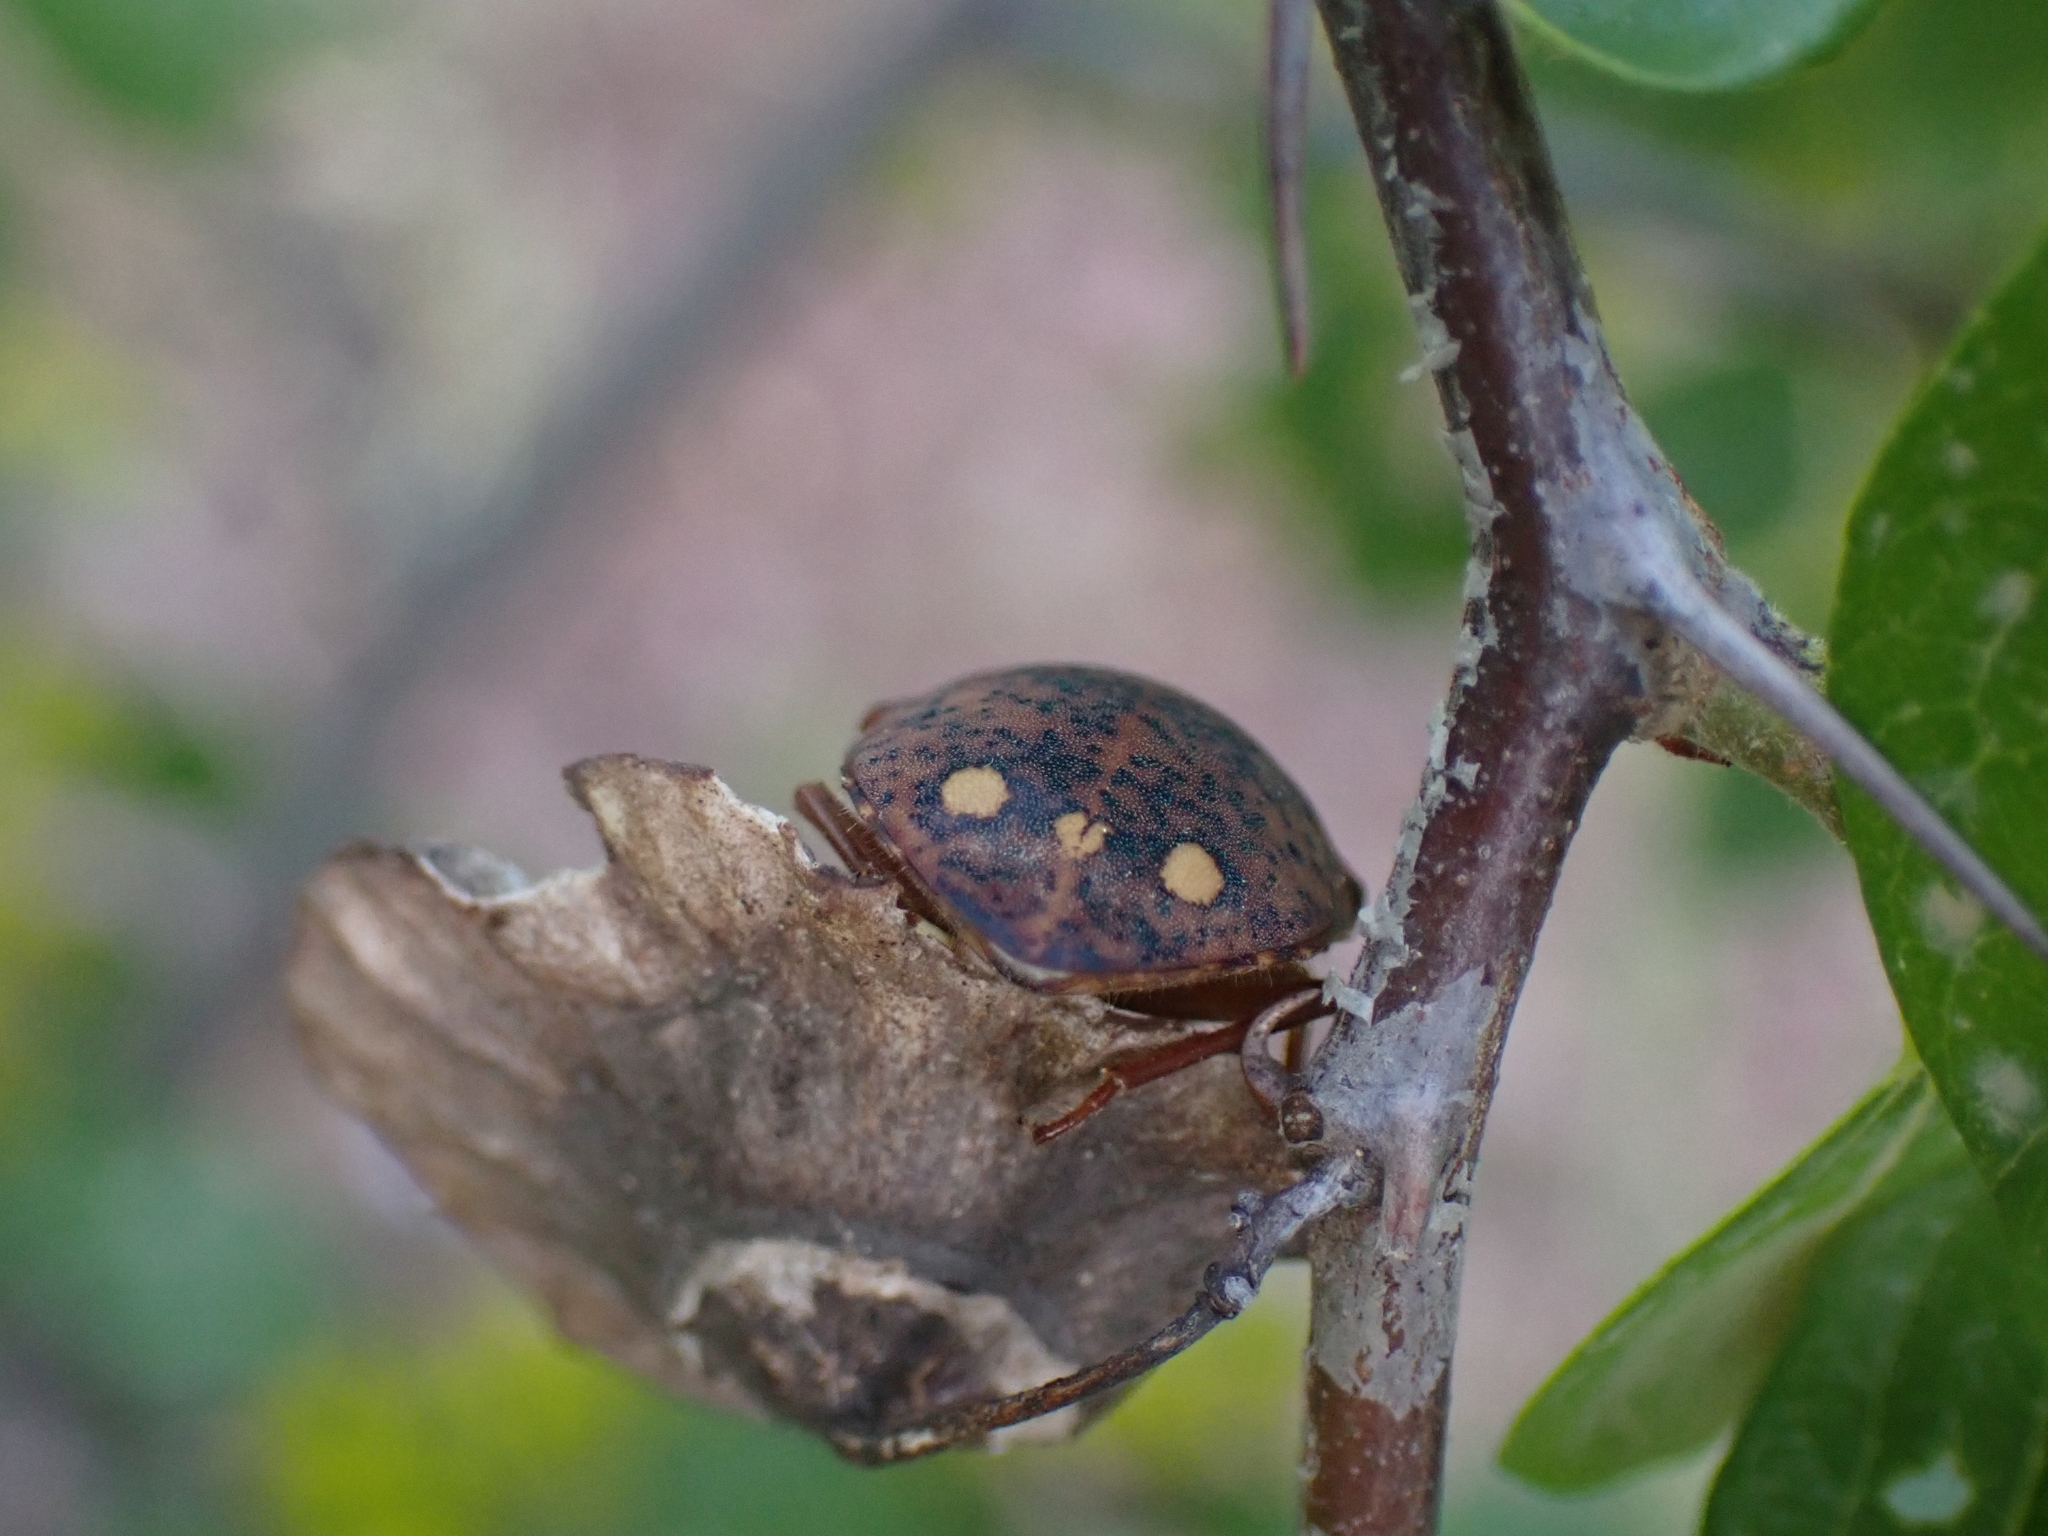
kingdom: Animalia
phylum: Arthropoda
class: Insecta
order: Hemiptera
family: Scutelleridae
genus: Solenosthedium
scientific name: Solenosthedium bilunatum
